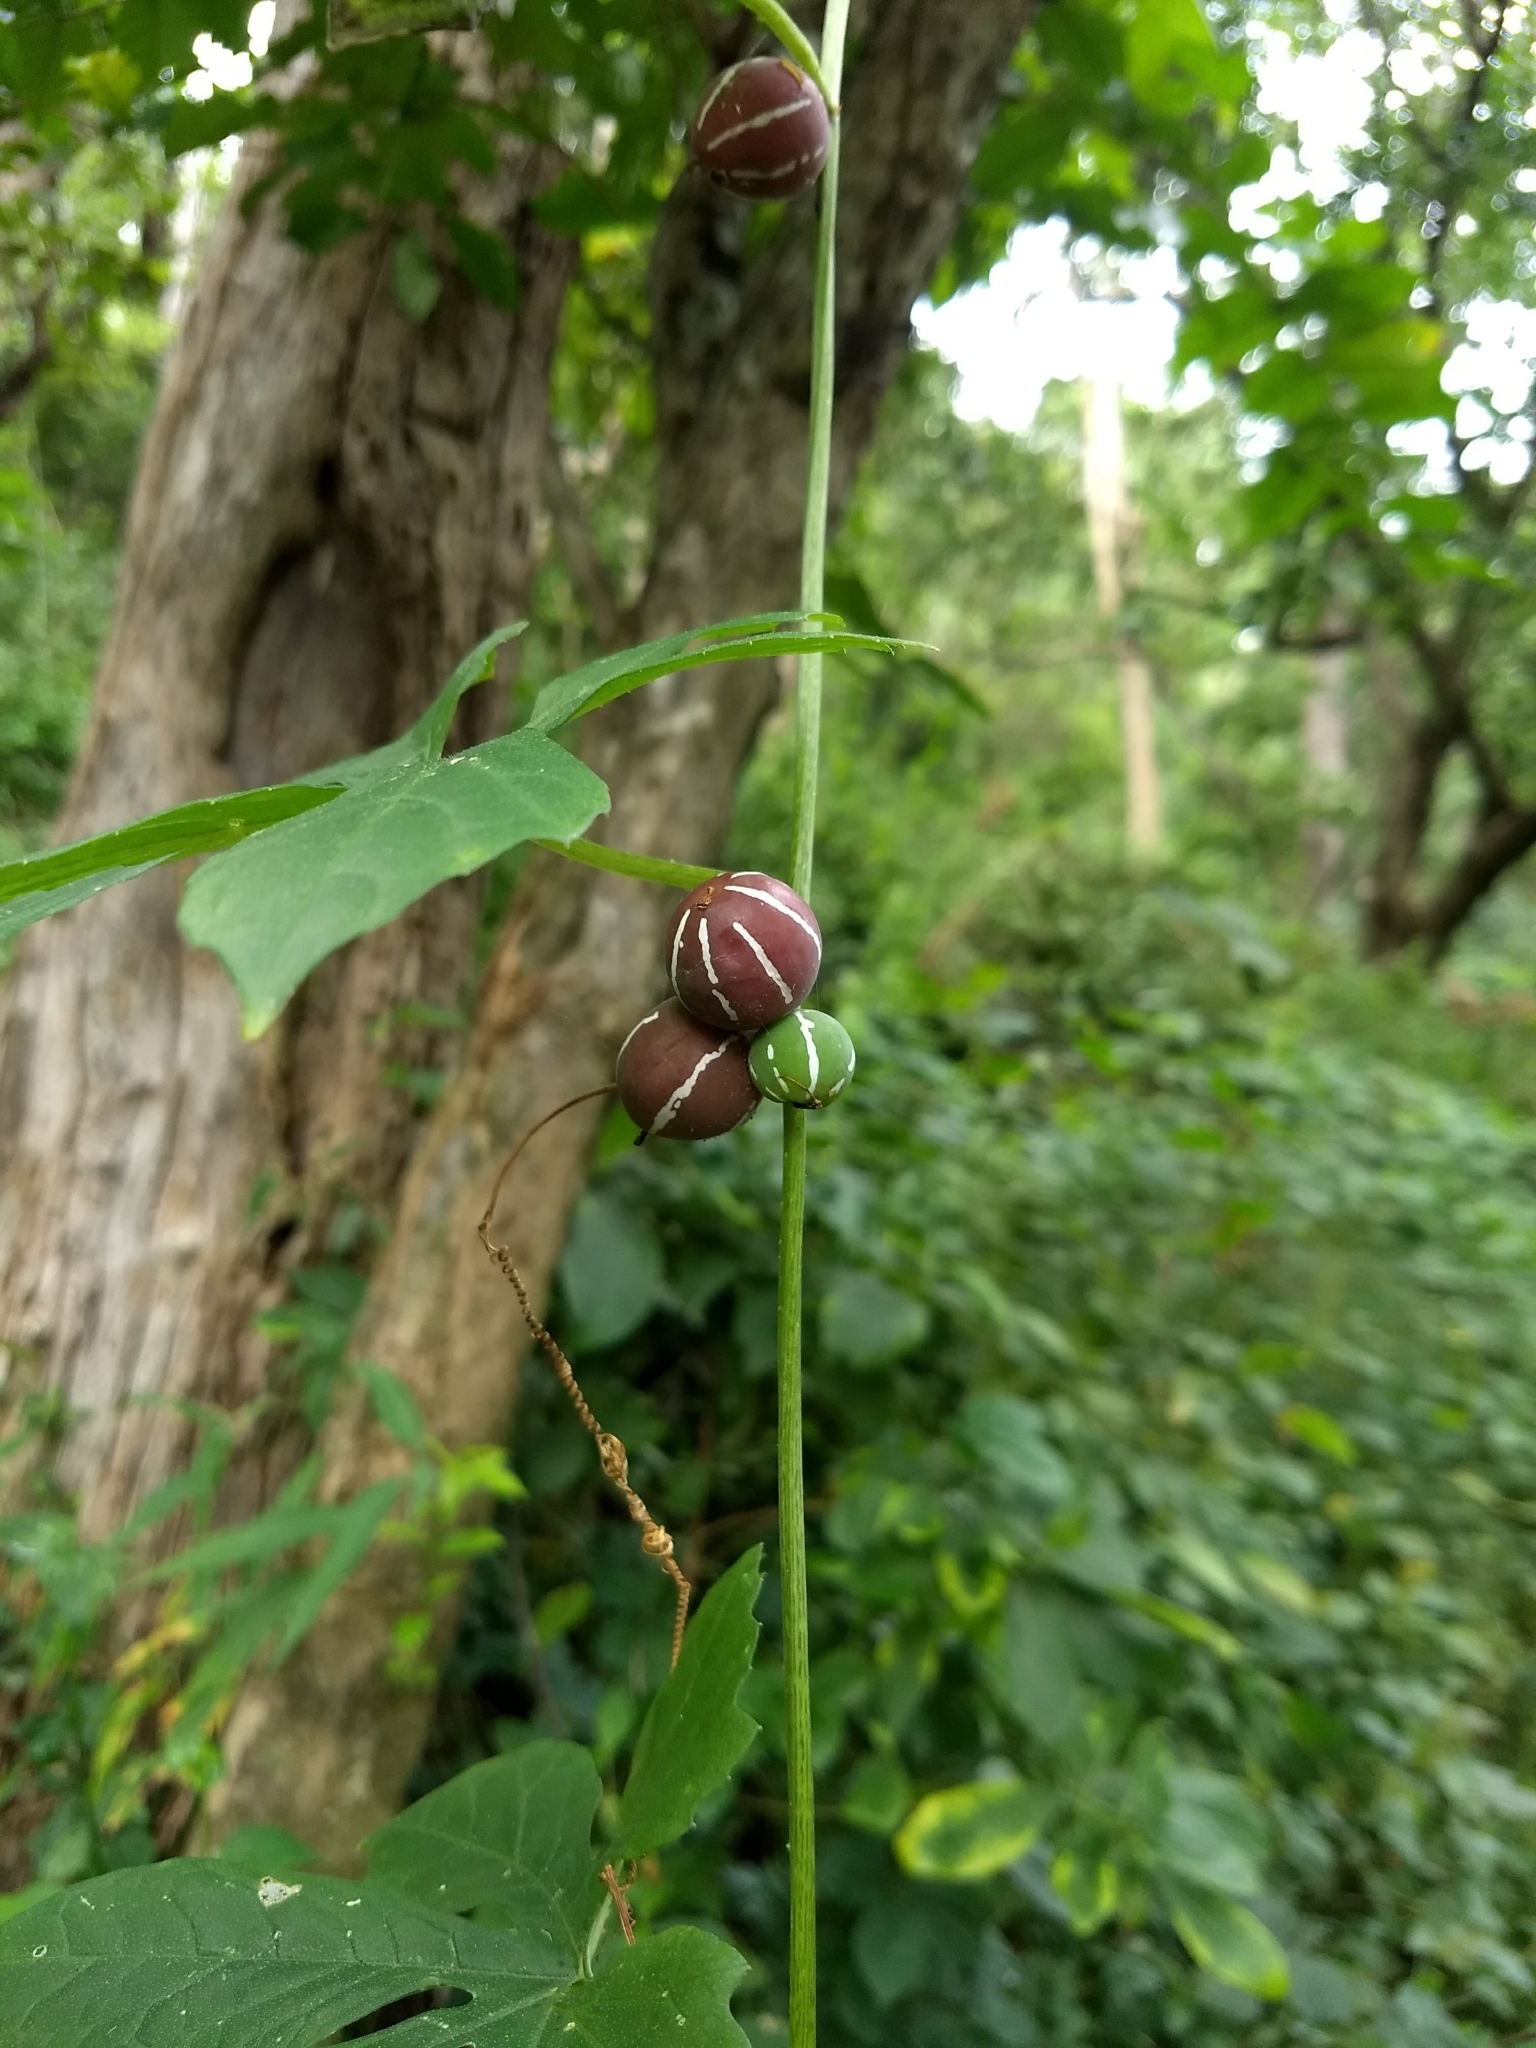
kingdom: Plantae
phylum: Tracheophyta
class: Magnoliopsida
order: Cucurbitales
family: Cucurbitaceae
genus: Diplocyclos
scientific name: Diplocyclos palmatus
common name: Striped-cucumber
